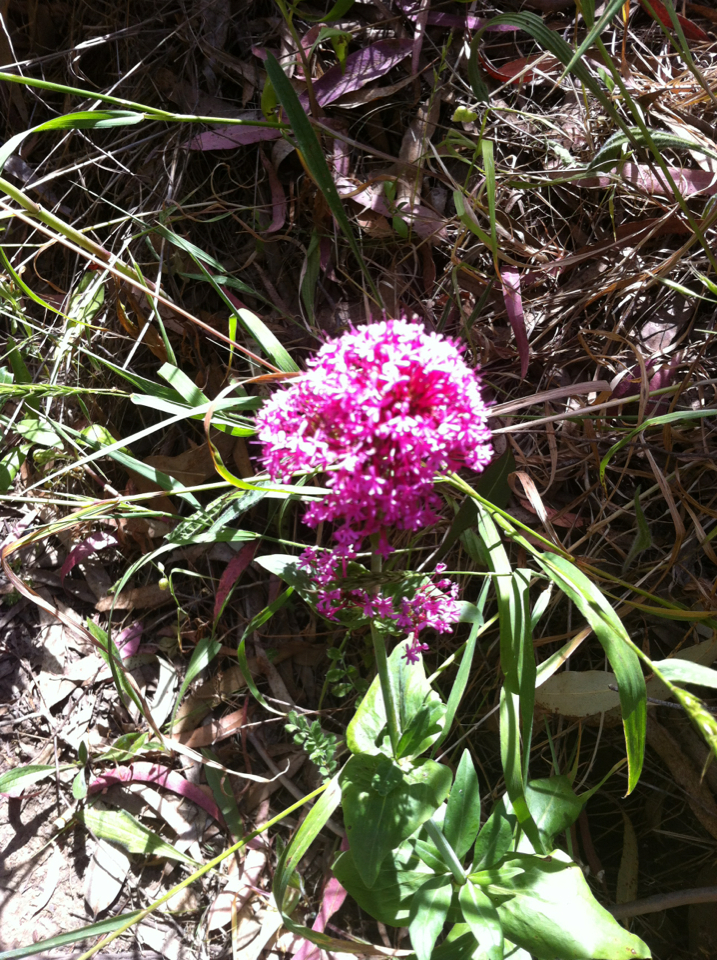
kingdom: Plantae
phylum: Tracheophyta
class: Magnoliopsida
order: Dipsacales
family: Caprifoliaceae
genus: Centranthus
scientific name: Centranthus ruber
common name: Red valerian
